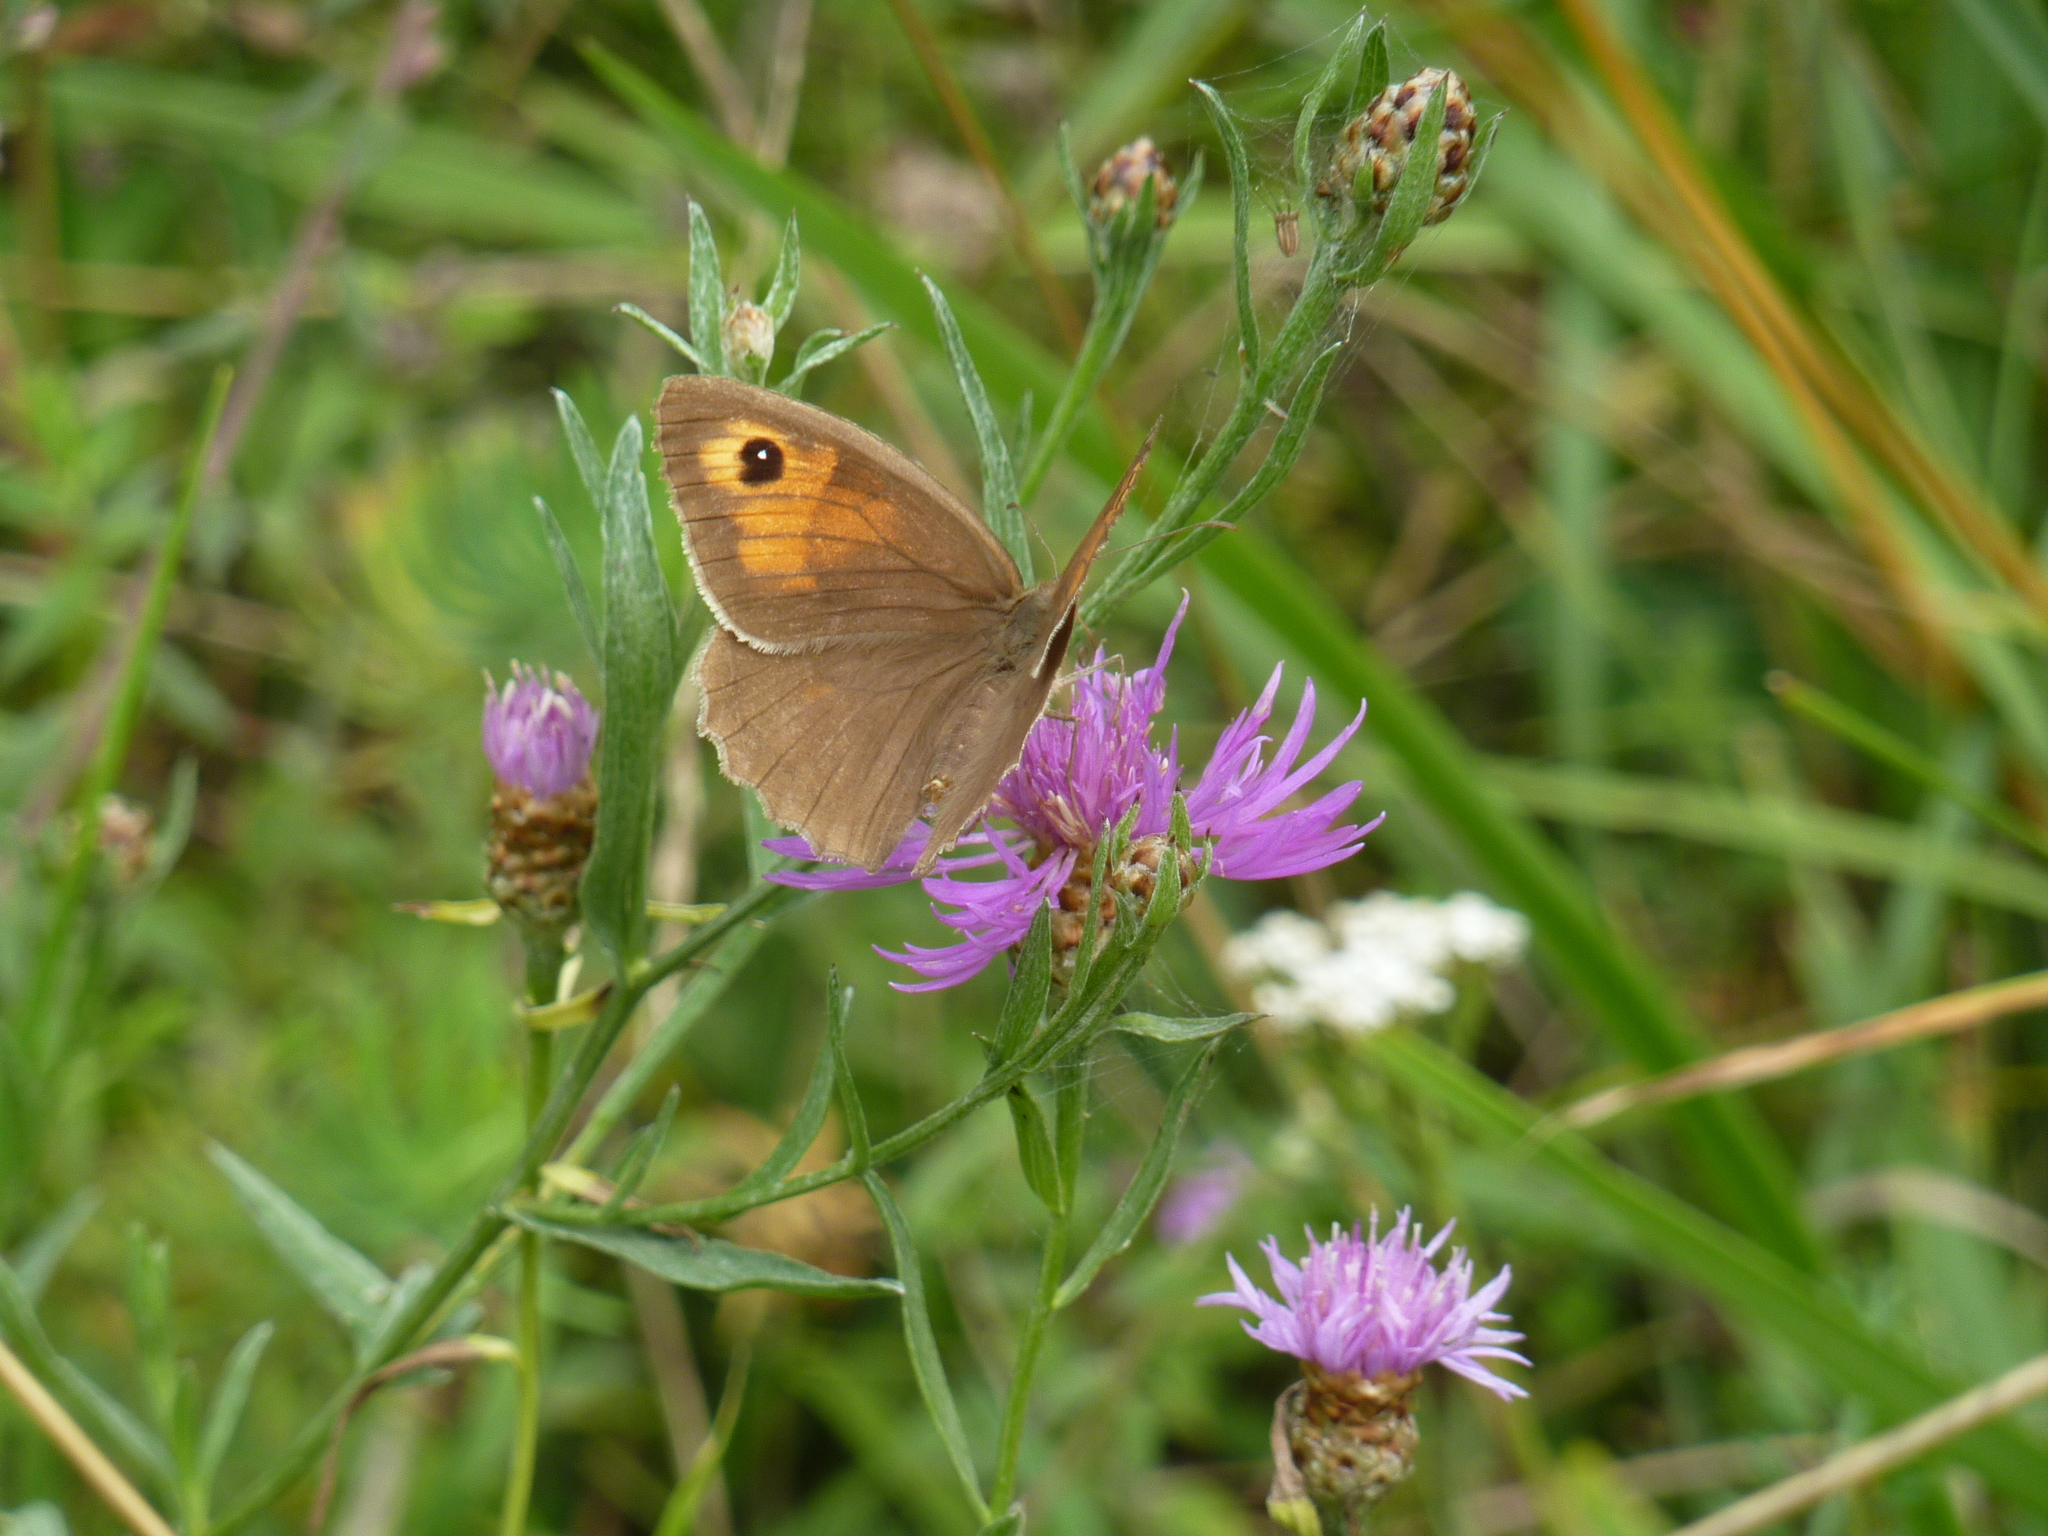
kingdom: Animalia
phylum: Arthropoda
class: Insecta
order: Lepidoptera
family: Nymphalidae
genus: Maniola
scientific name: Maniola jurtina
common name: Meadow brown
